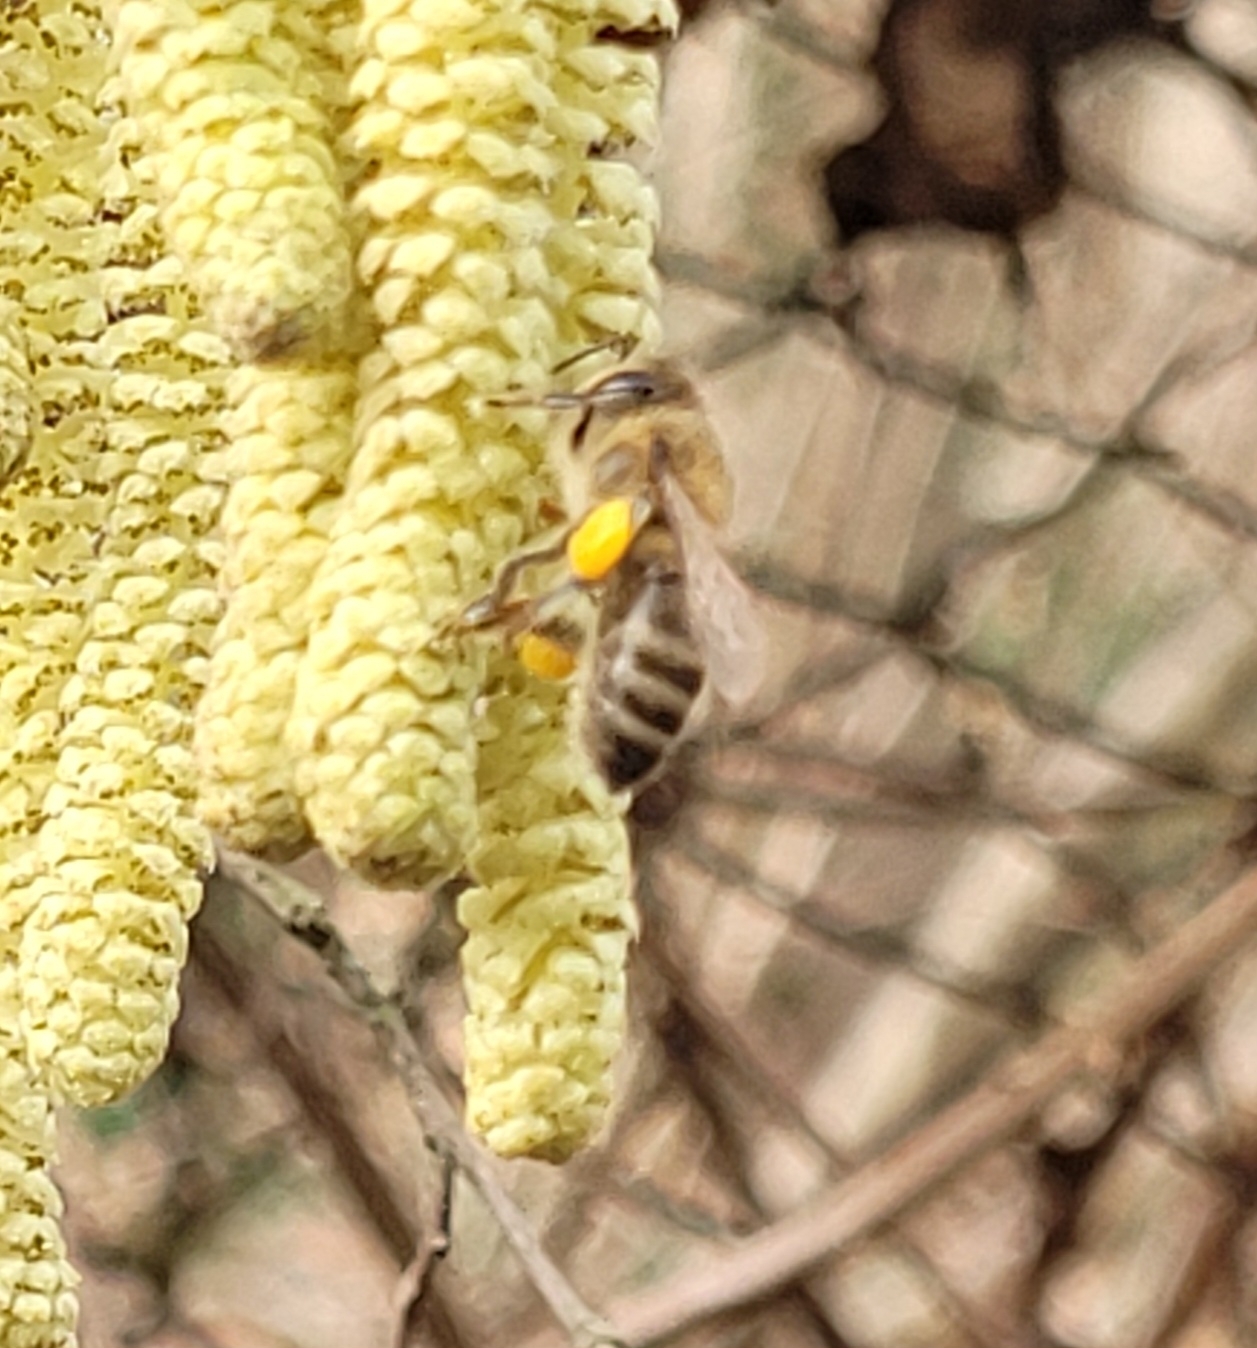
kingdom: Animalia
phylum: Arthropoda
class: Insecta
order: Hymenoptera
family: Apidae
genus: Apis
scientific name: Apis mellifera
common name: Honey bee
